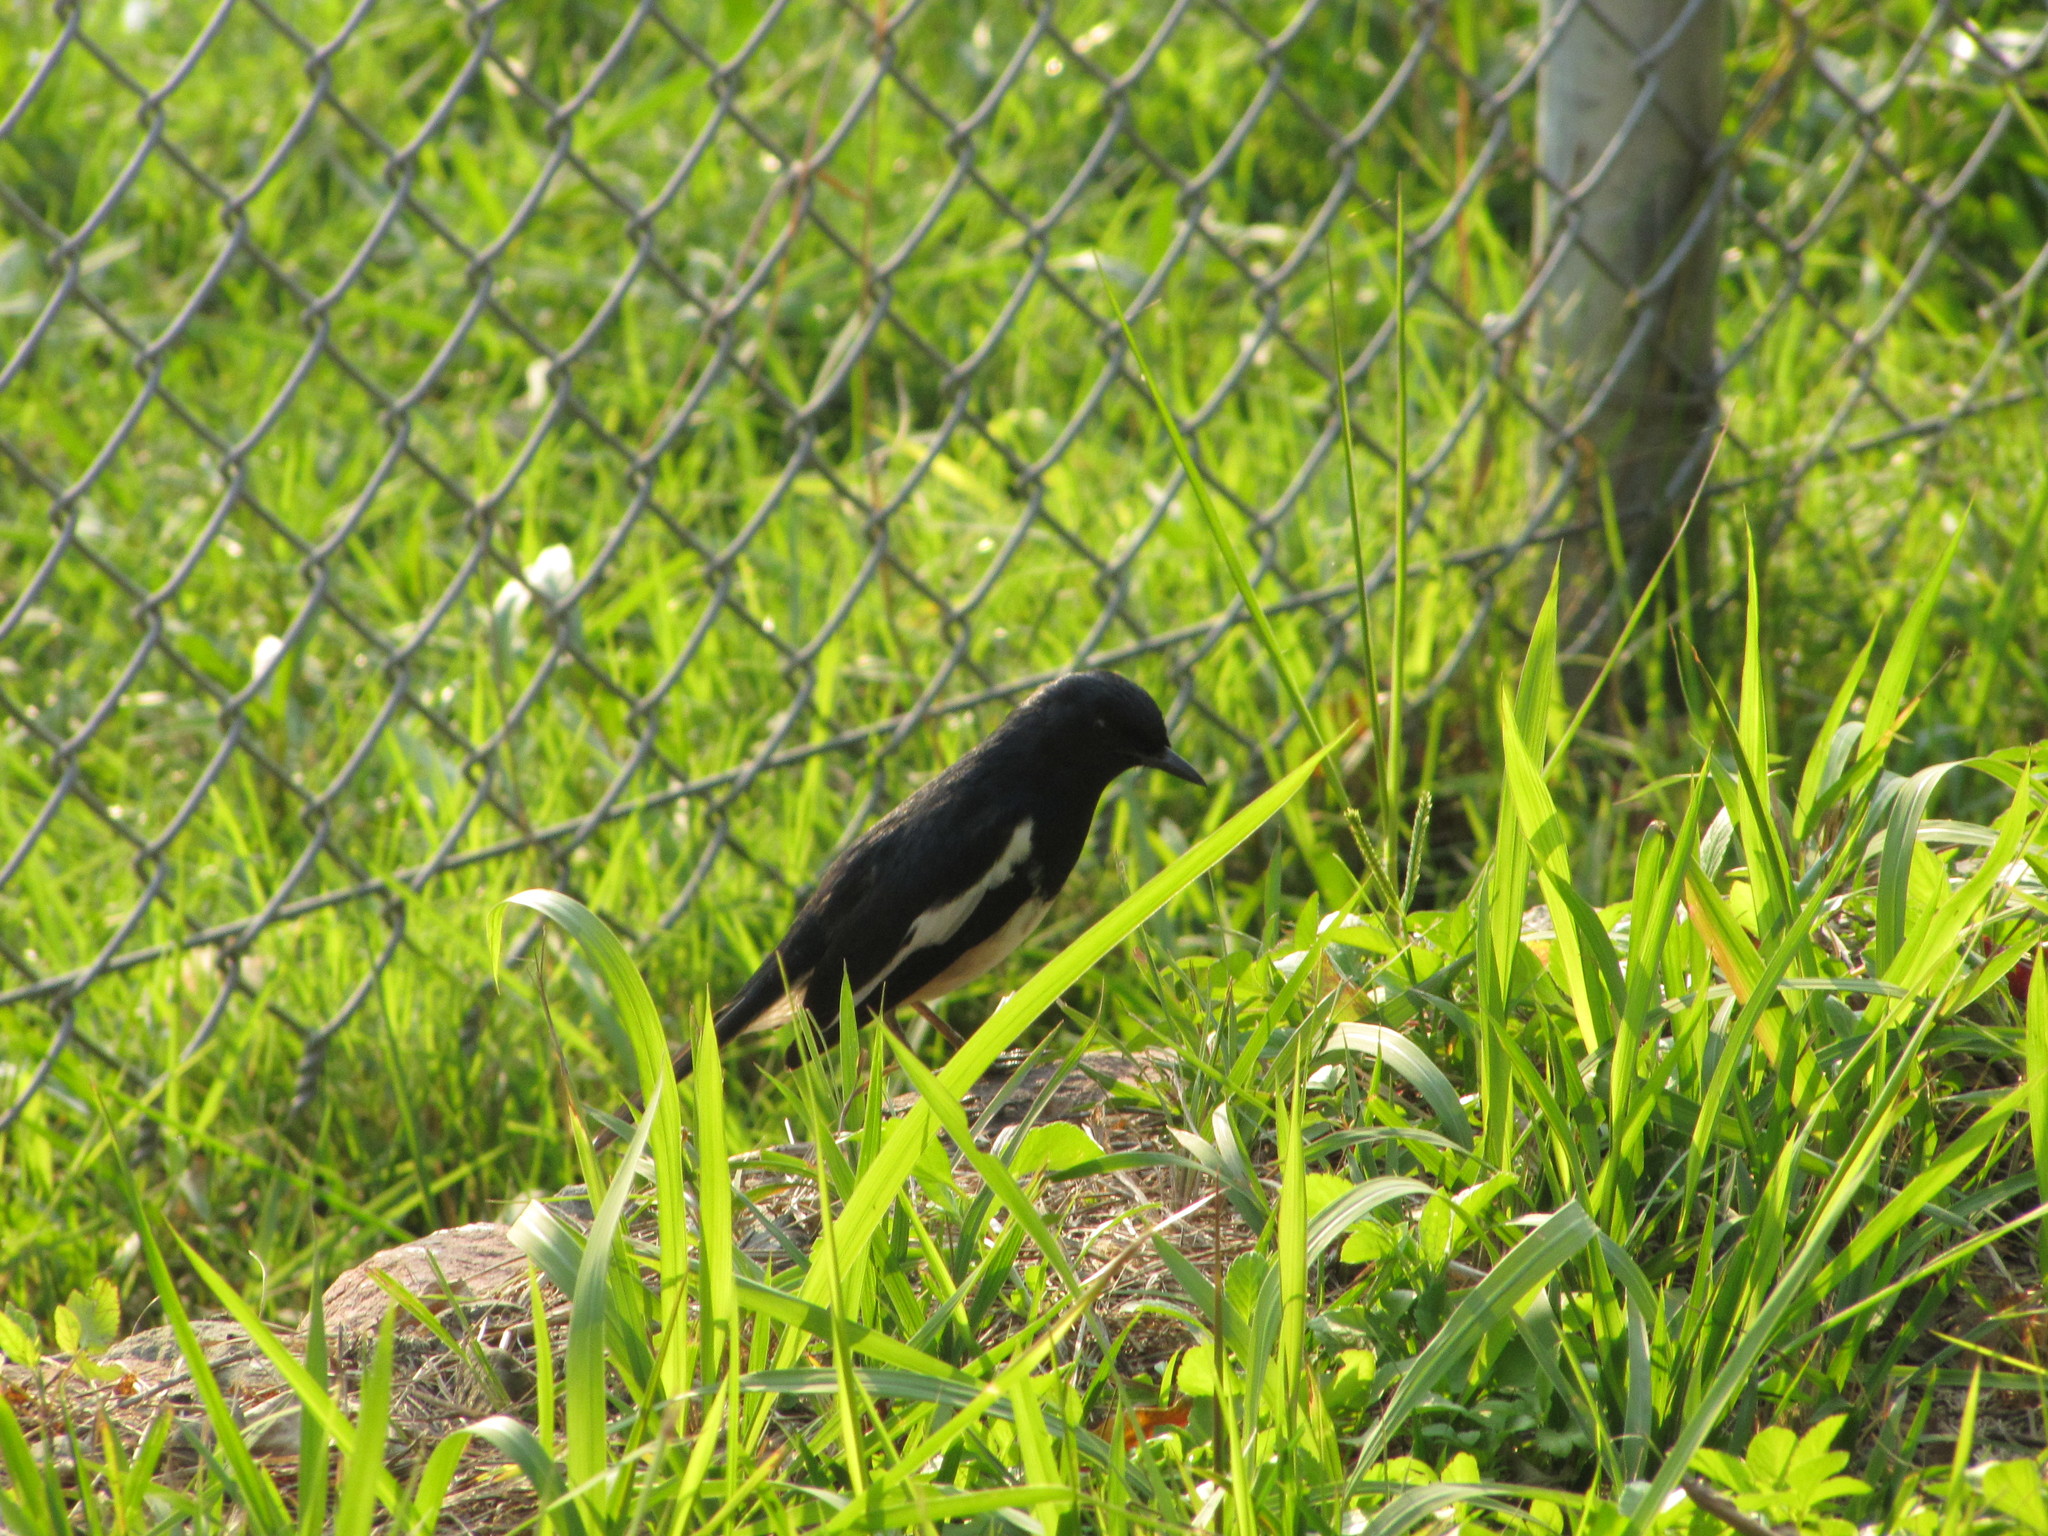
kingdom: Animalia
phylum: Chordata
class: Aves
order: Passeriformes
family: Muscicapidae
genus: Copsychus
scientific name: Copsychus saularis
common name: Oriental magpie-robin
